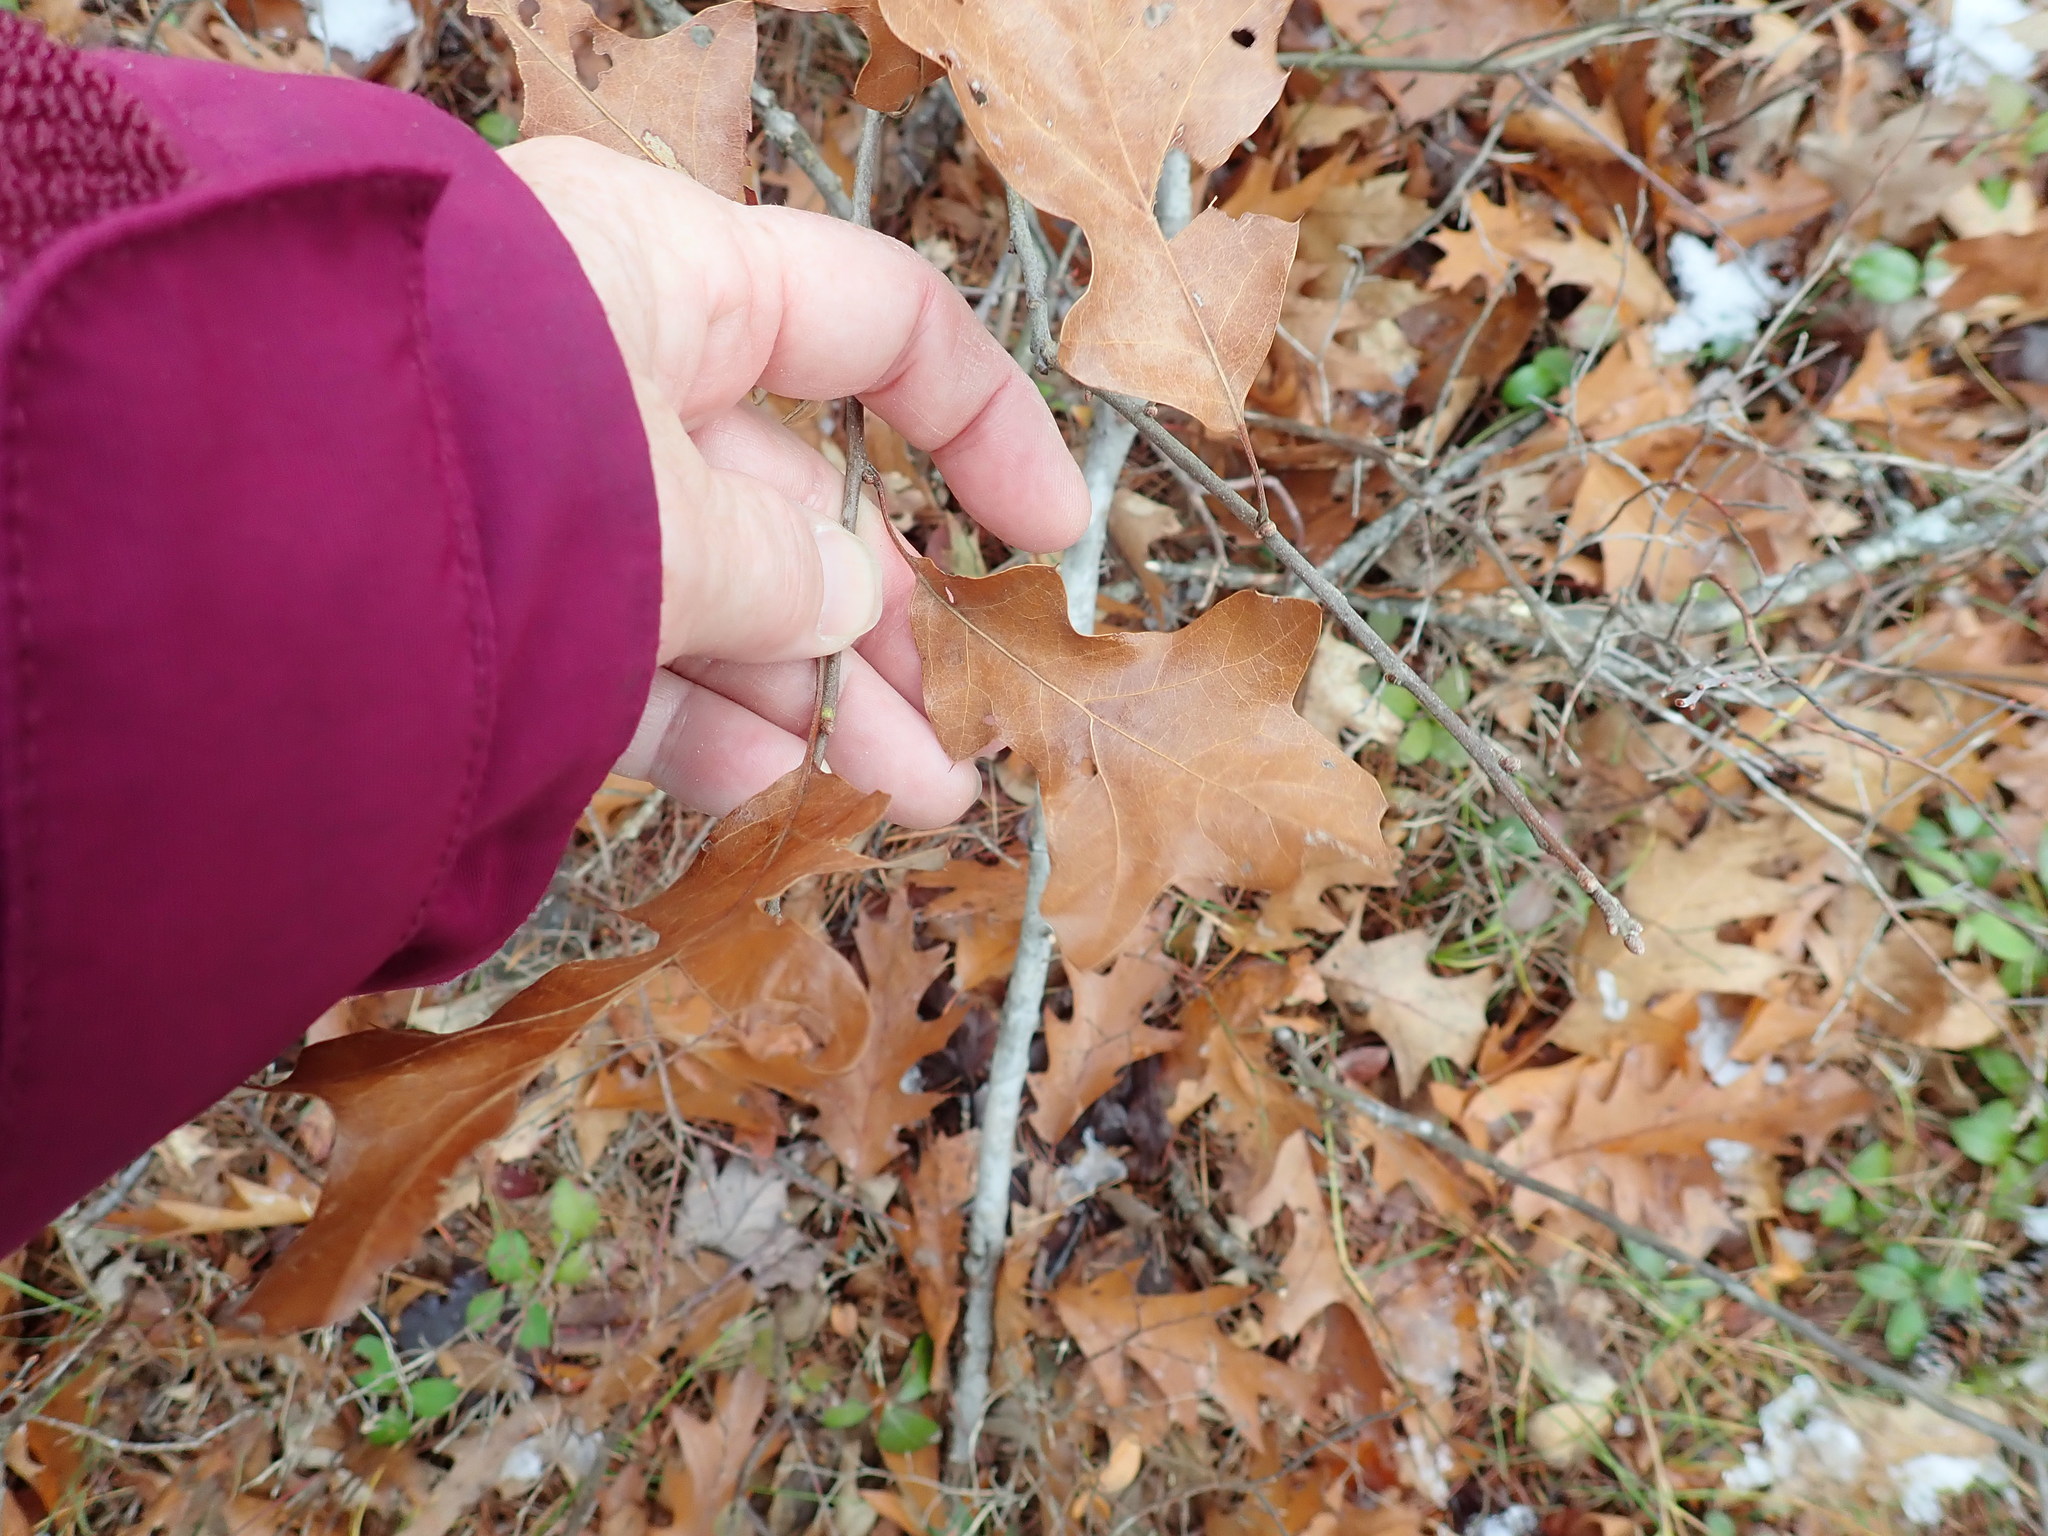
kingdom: Plantae
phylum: Tracheophyta
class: Magnoliopsida
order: Fagales
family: Fagaceae
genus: Quercus
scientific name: Quercus ilicifolia
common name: Bear oak
